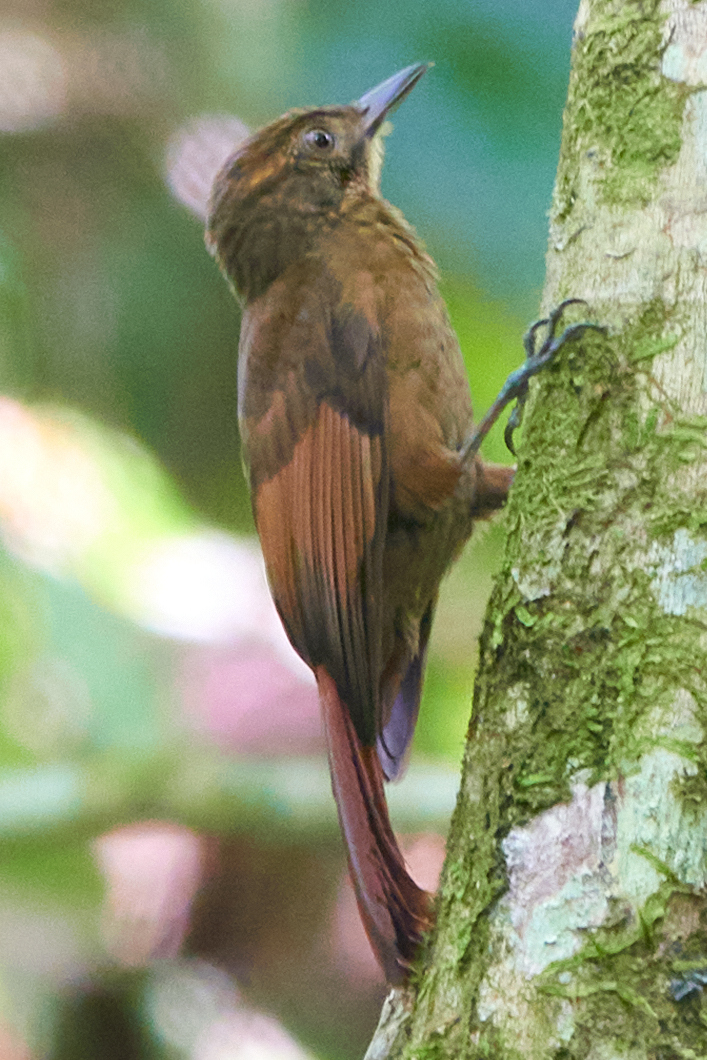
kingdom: Animalia
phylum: Chordata
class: Aves
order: Passeriformes
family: Furnariidae
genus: Dendrocincla
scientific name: Dendrocincla anabatina
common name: Tawny-winged woodcreeper
